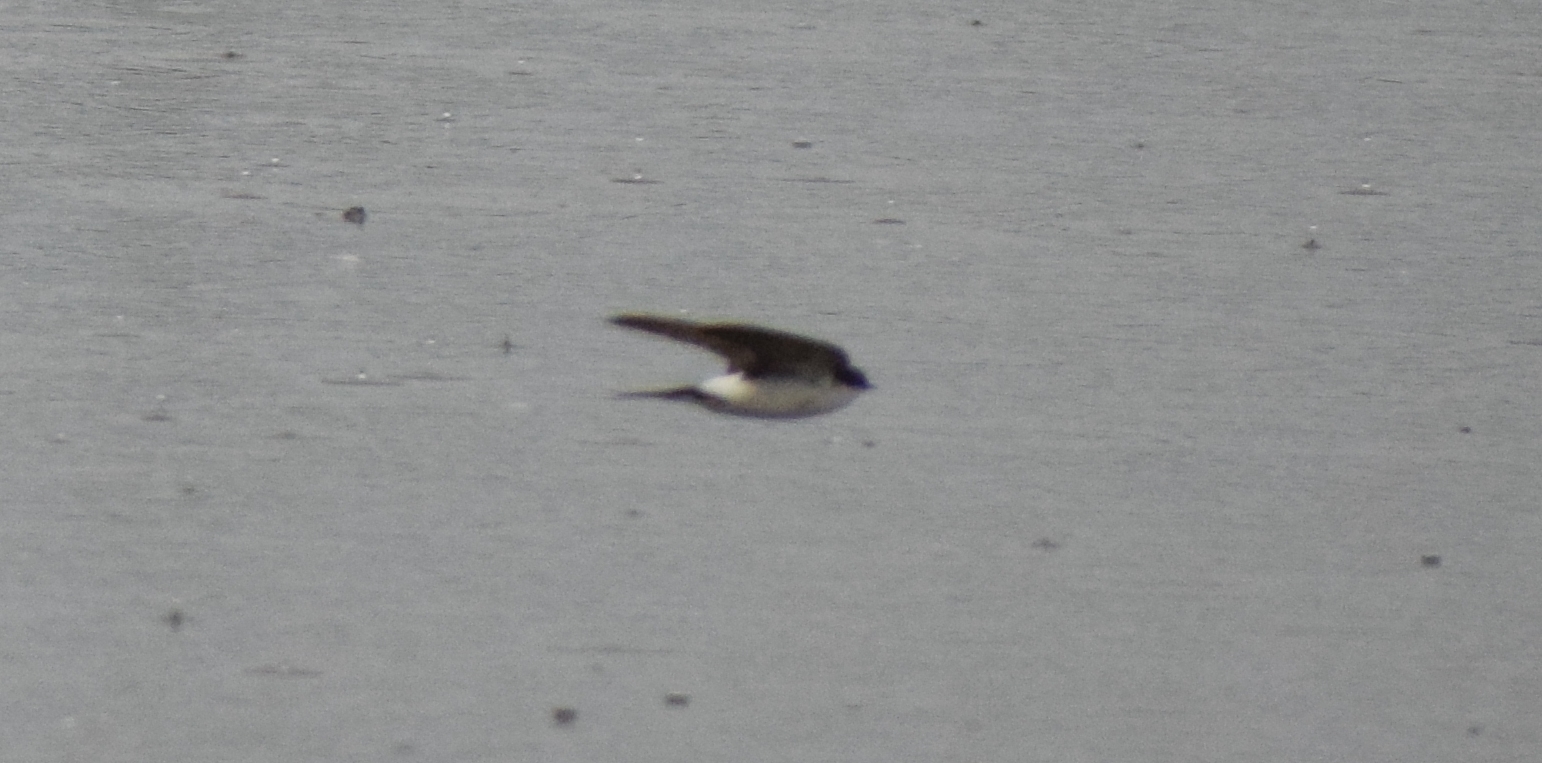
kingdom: Animalia
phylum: Chordata
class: Aves
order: Passeriformes
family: Hirundinidae
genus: Delichon
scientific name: Delichon urbicum
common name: Common house martin
